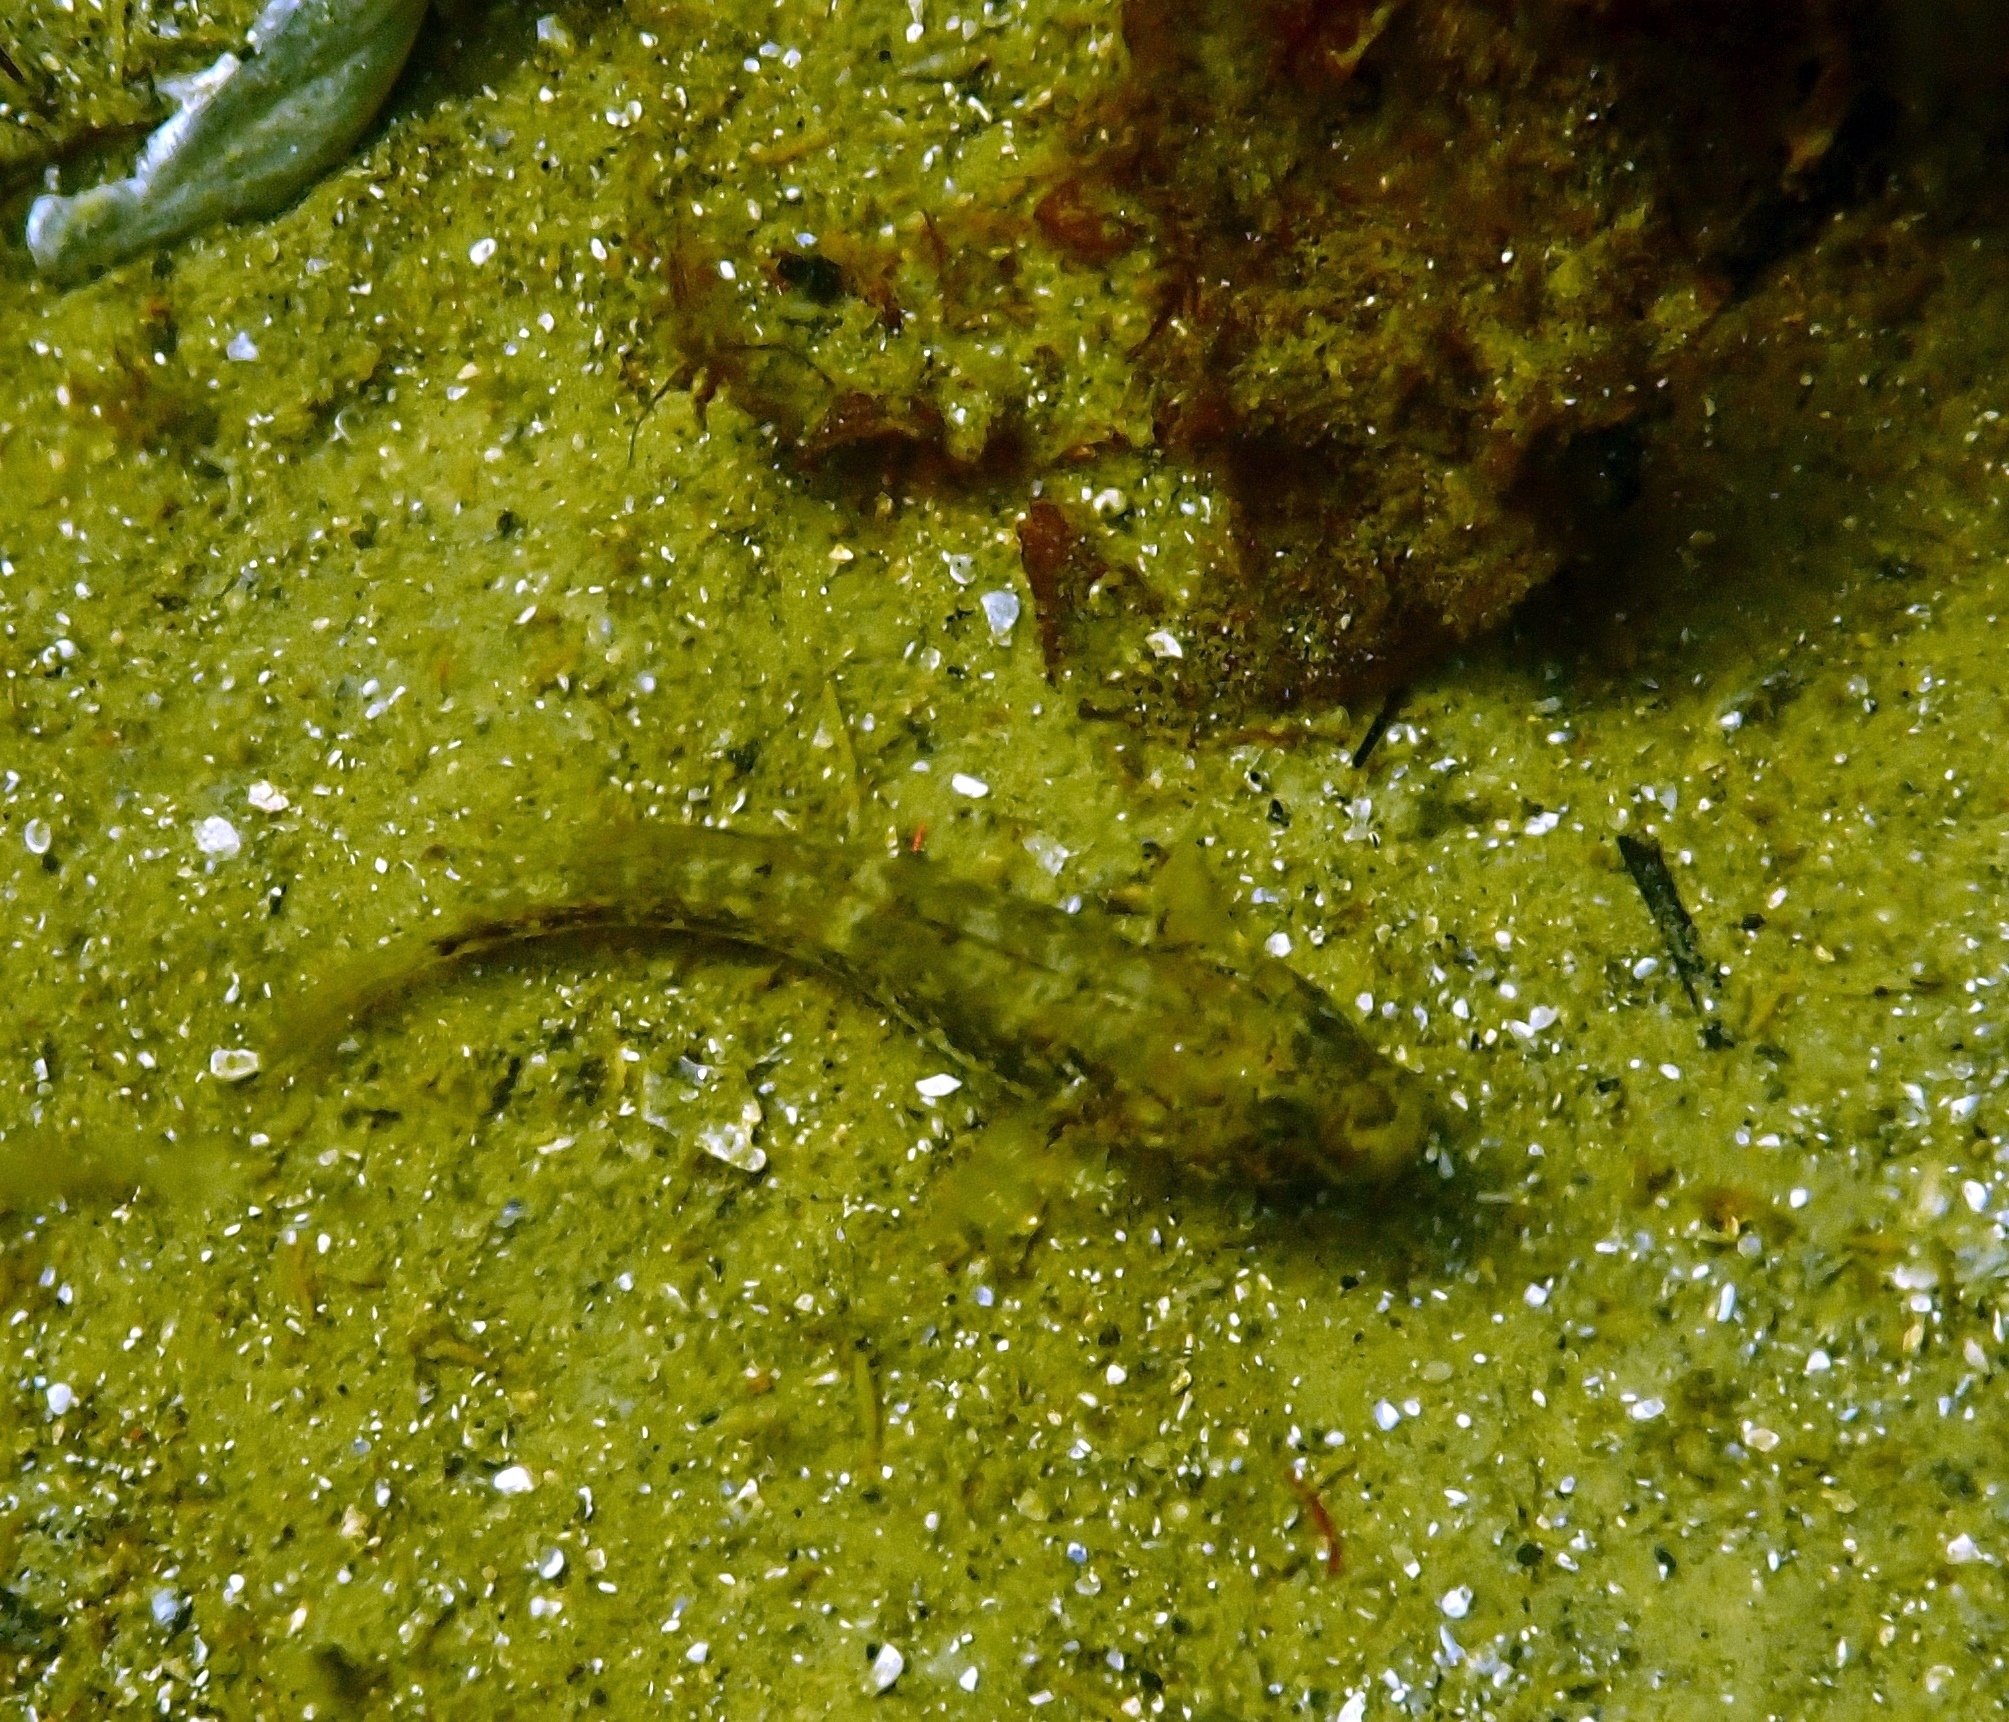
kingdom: Animalia
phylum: Chordata
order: Perciformes
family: Gobiidae
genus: Gobius
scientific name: Gobius niger
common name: Black goby
